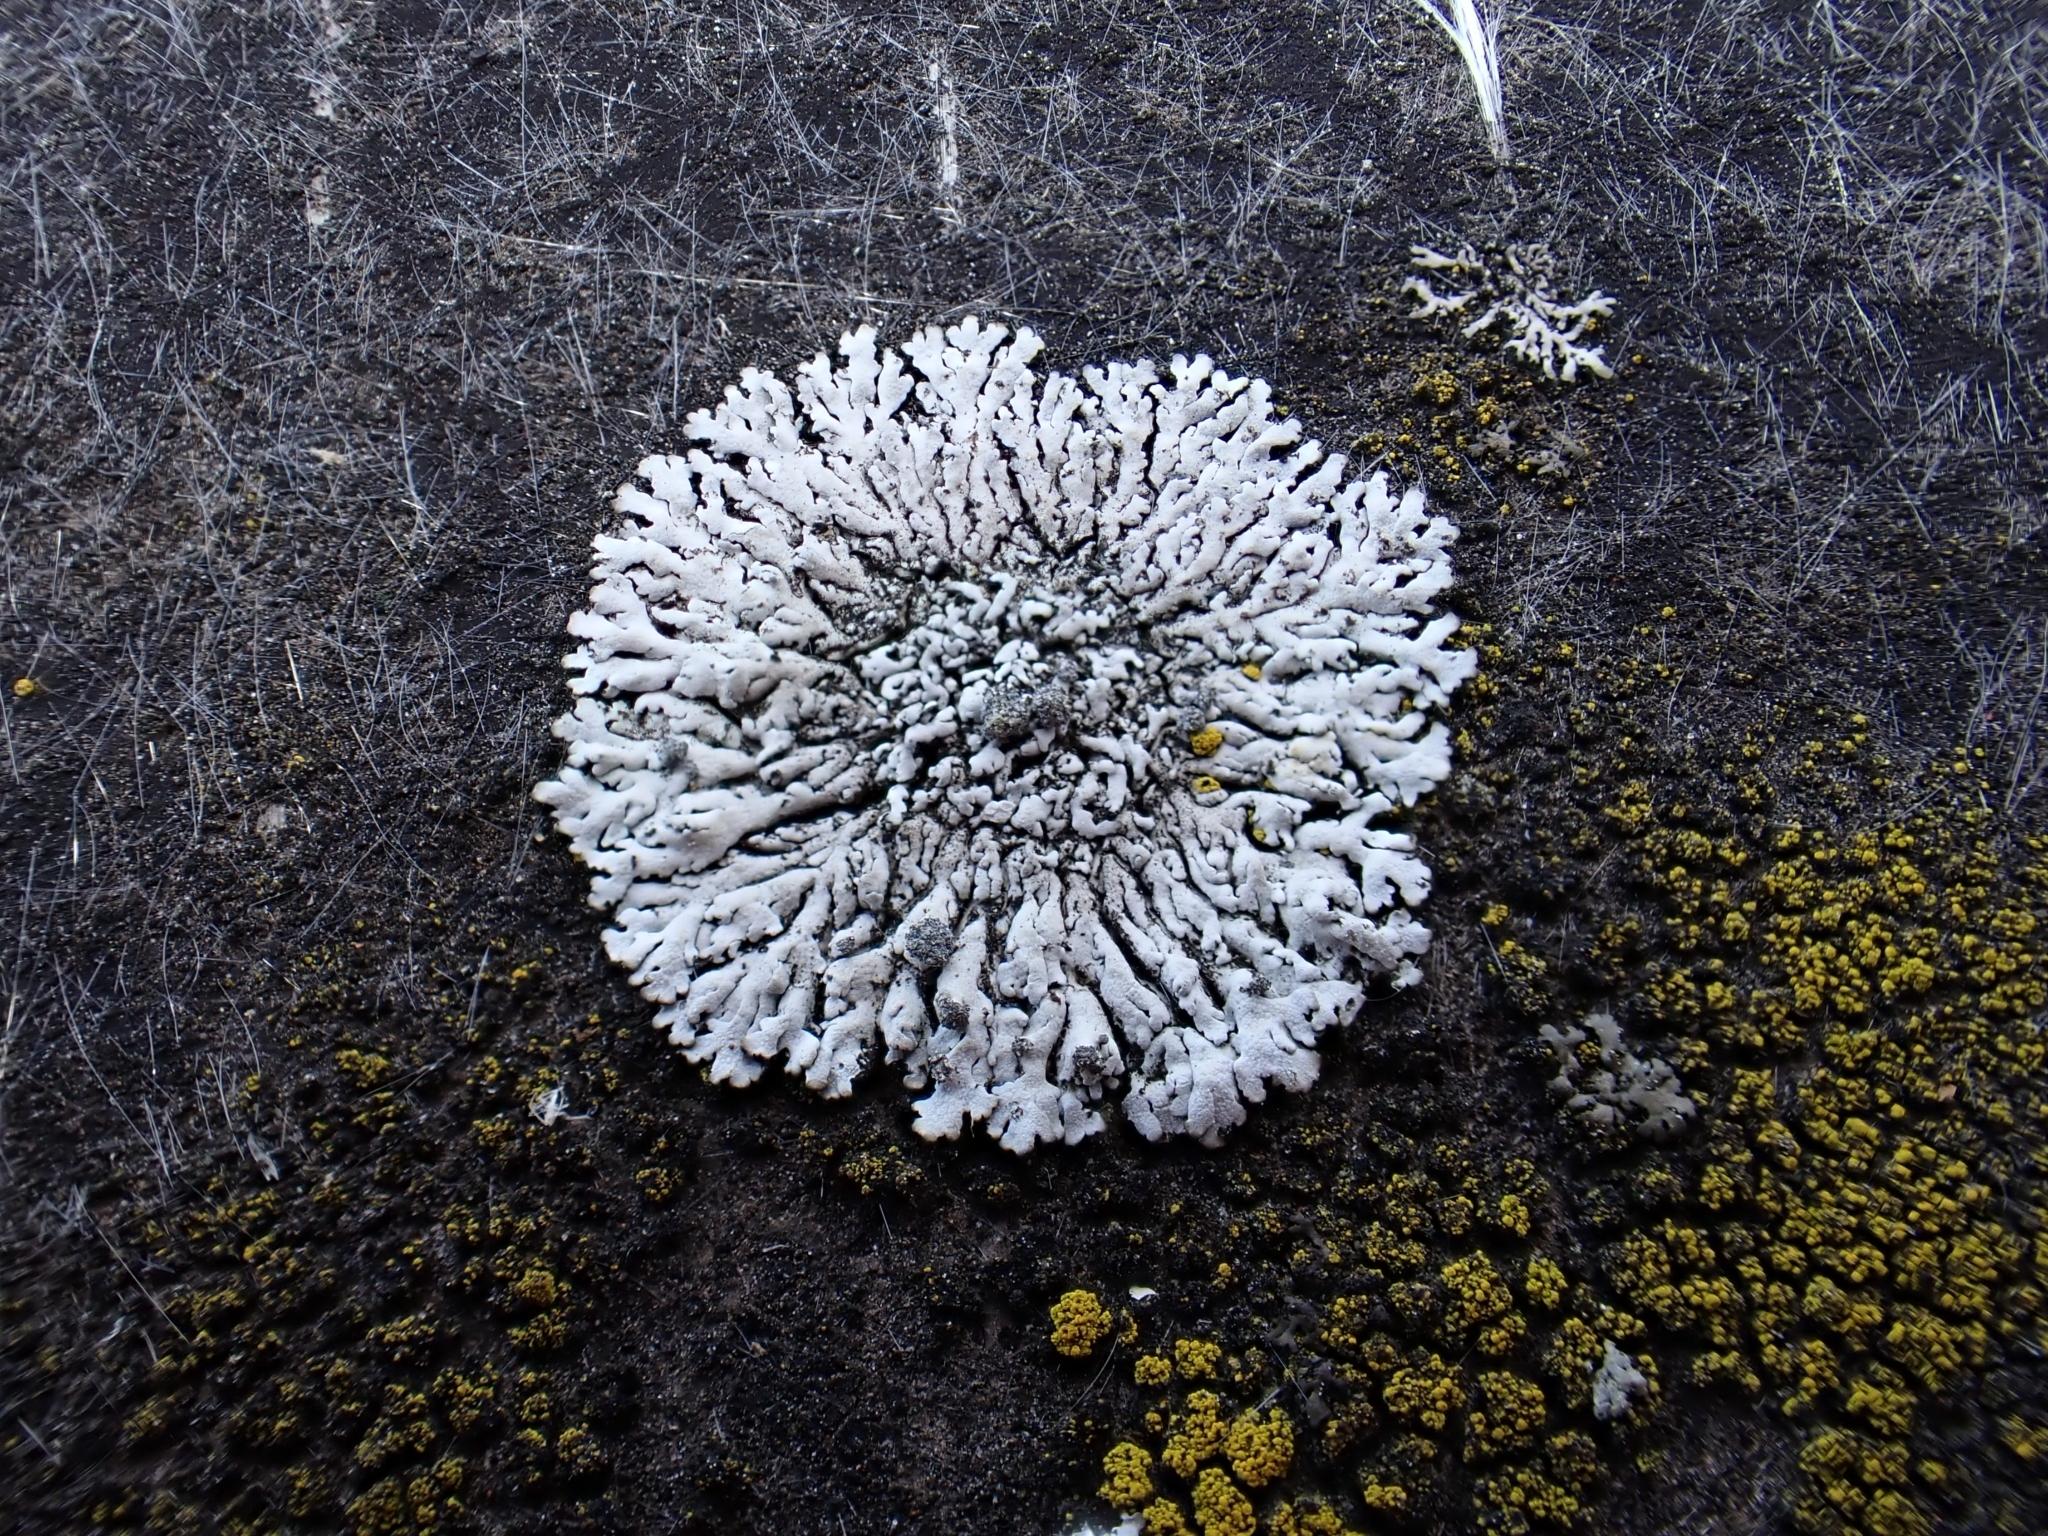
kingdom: Fungi
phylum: Ascomycota
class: Lecanoromycetes
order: Caliciales
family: Physciaceae
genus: Physcia
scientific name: Physcia caesia
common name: Blue-gray rosette lichen
